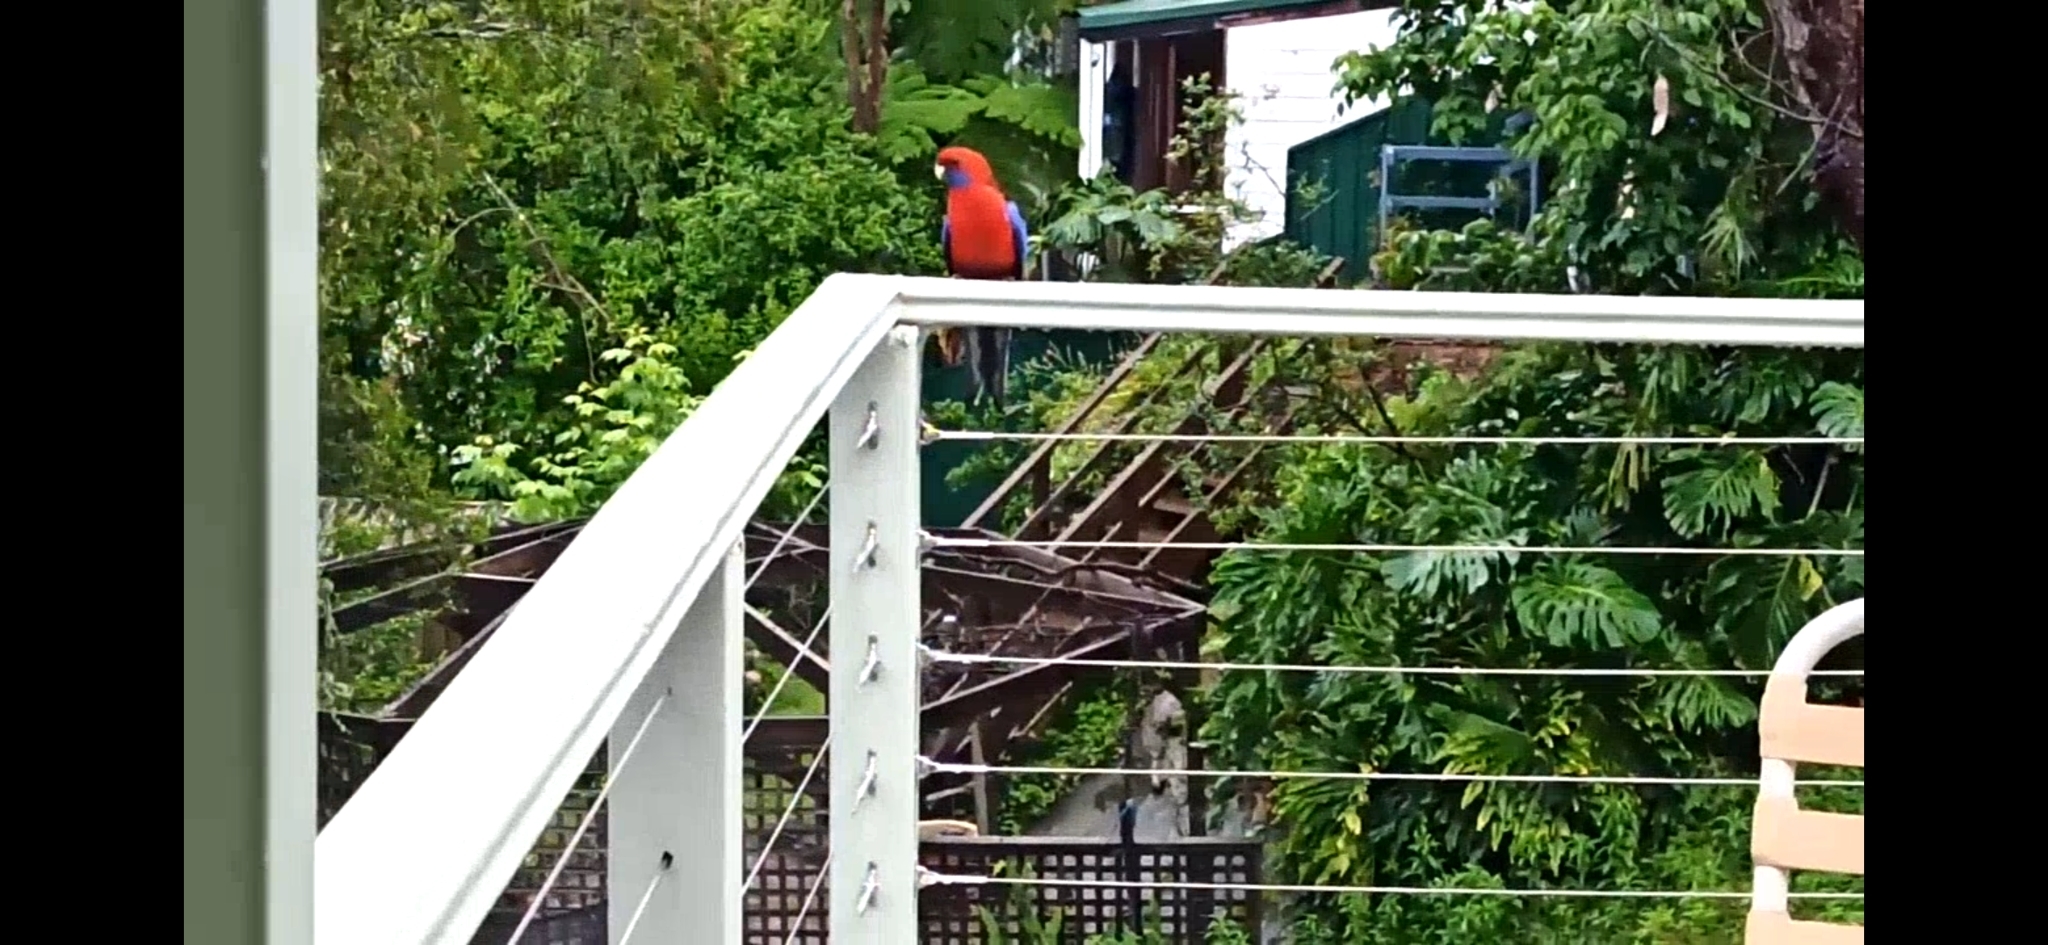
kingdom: Animalia
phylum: Chordata
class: Aves
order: Psittaciformes
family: Psittacidae
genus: Platycercus
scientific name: Platycercus elegans
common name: Crimson rosella
